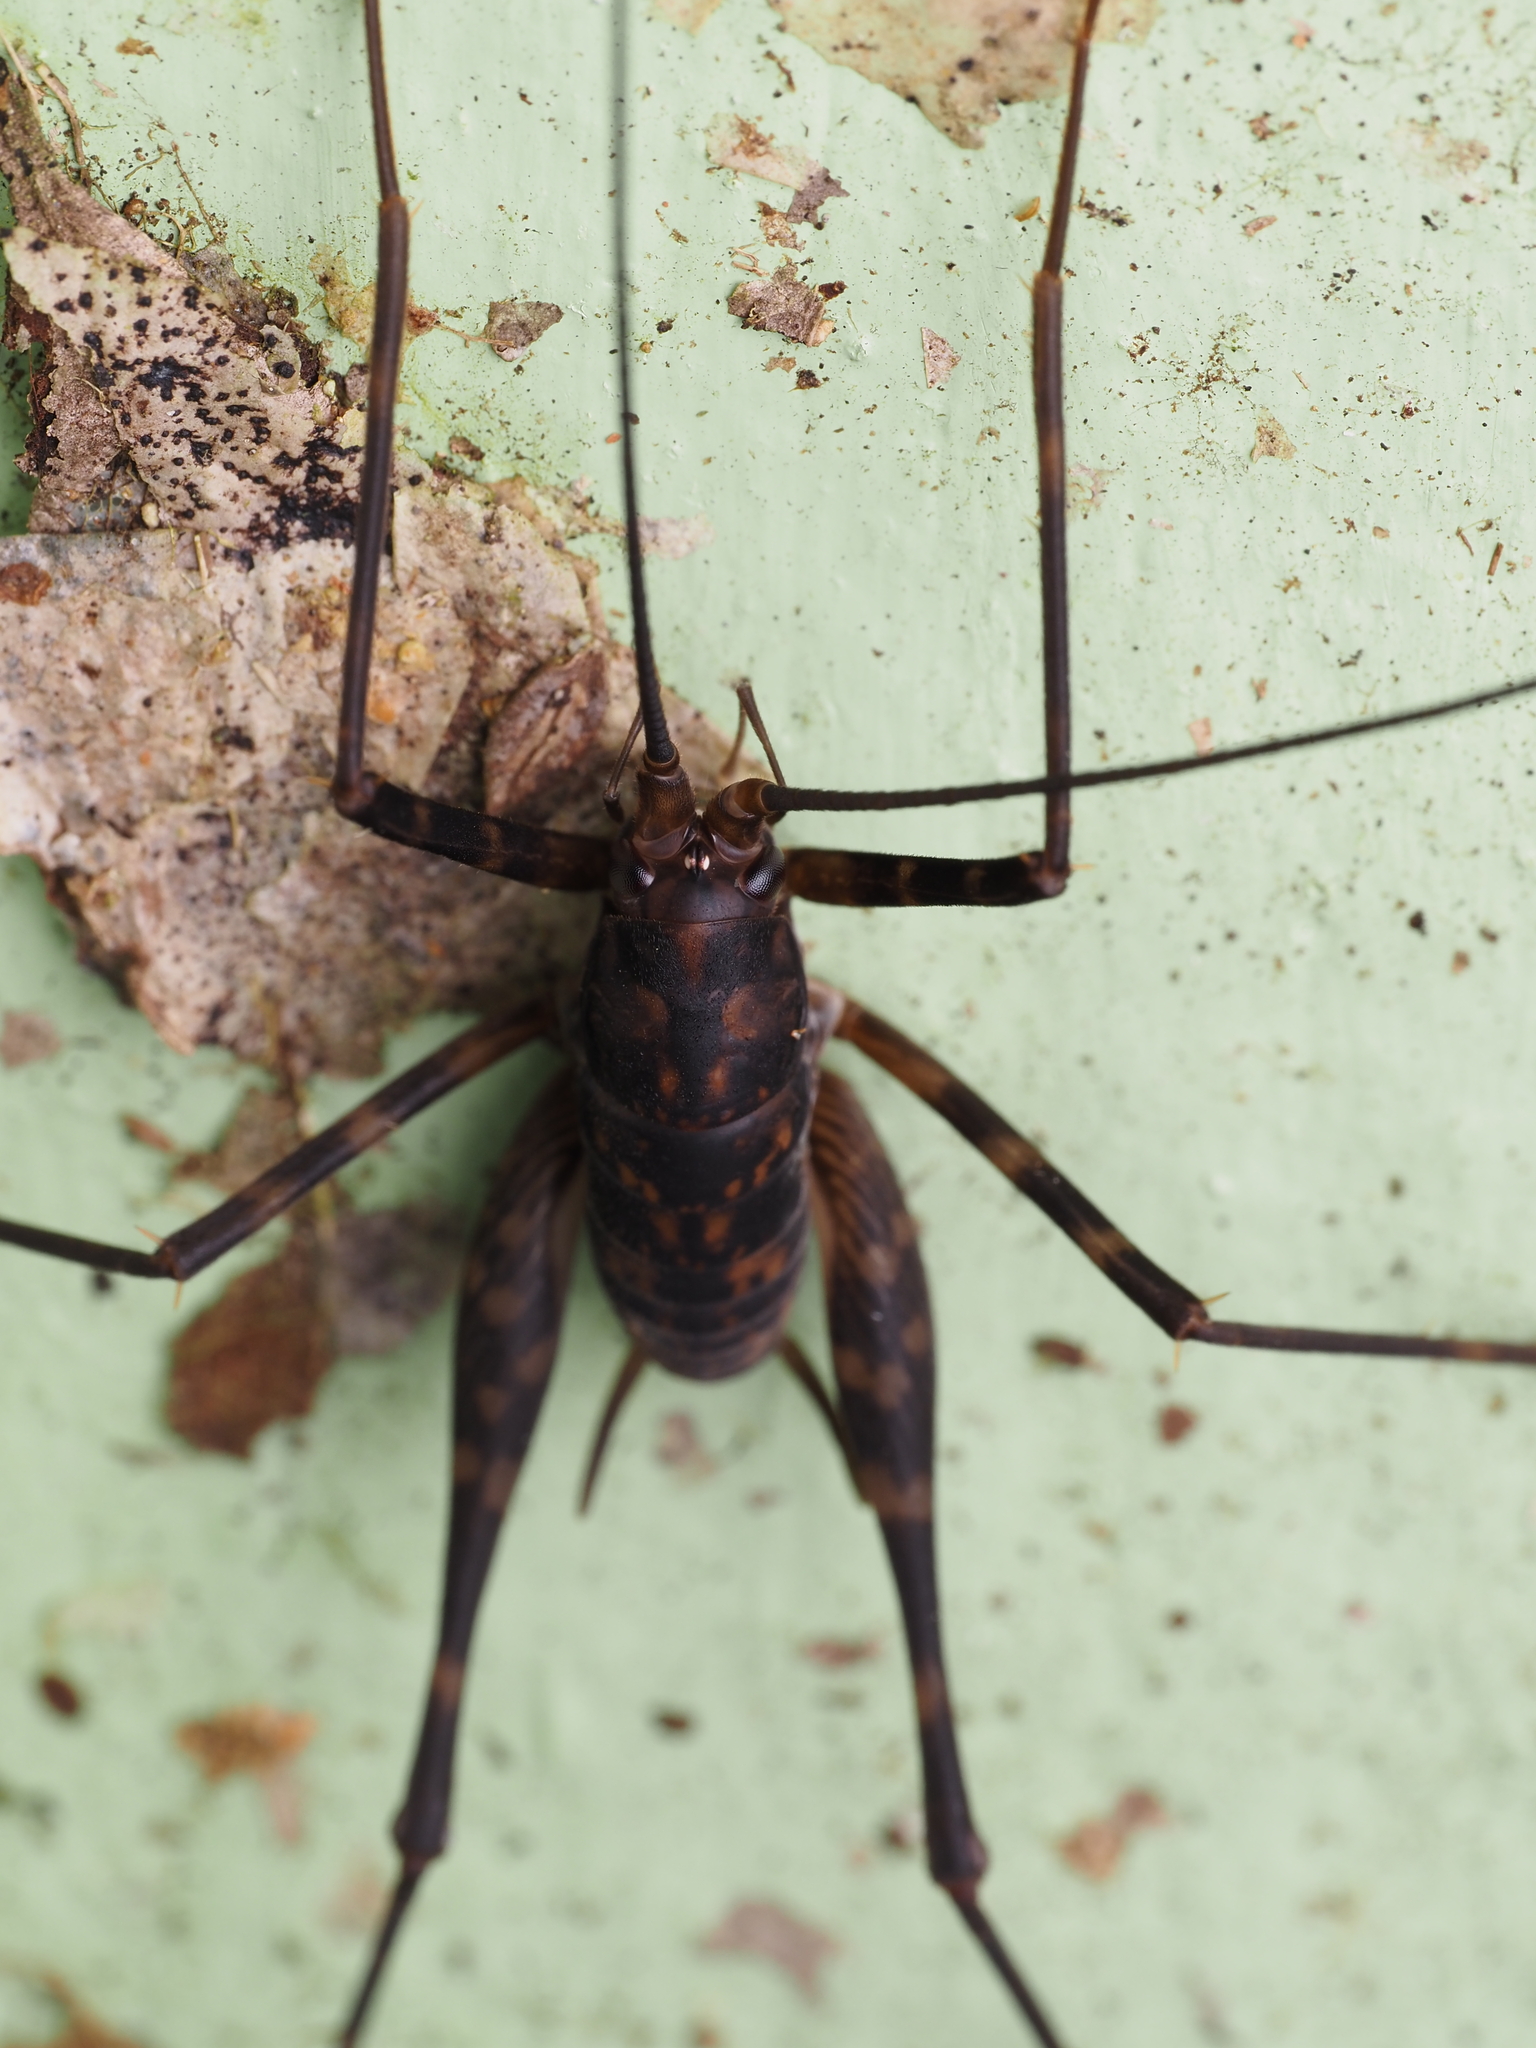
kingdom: Animalia
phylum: Arthropoda
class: Insecta
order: Orthoptera
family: Rhaphidophoridae
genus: Miotopus
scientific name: Miotopus richardsae
